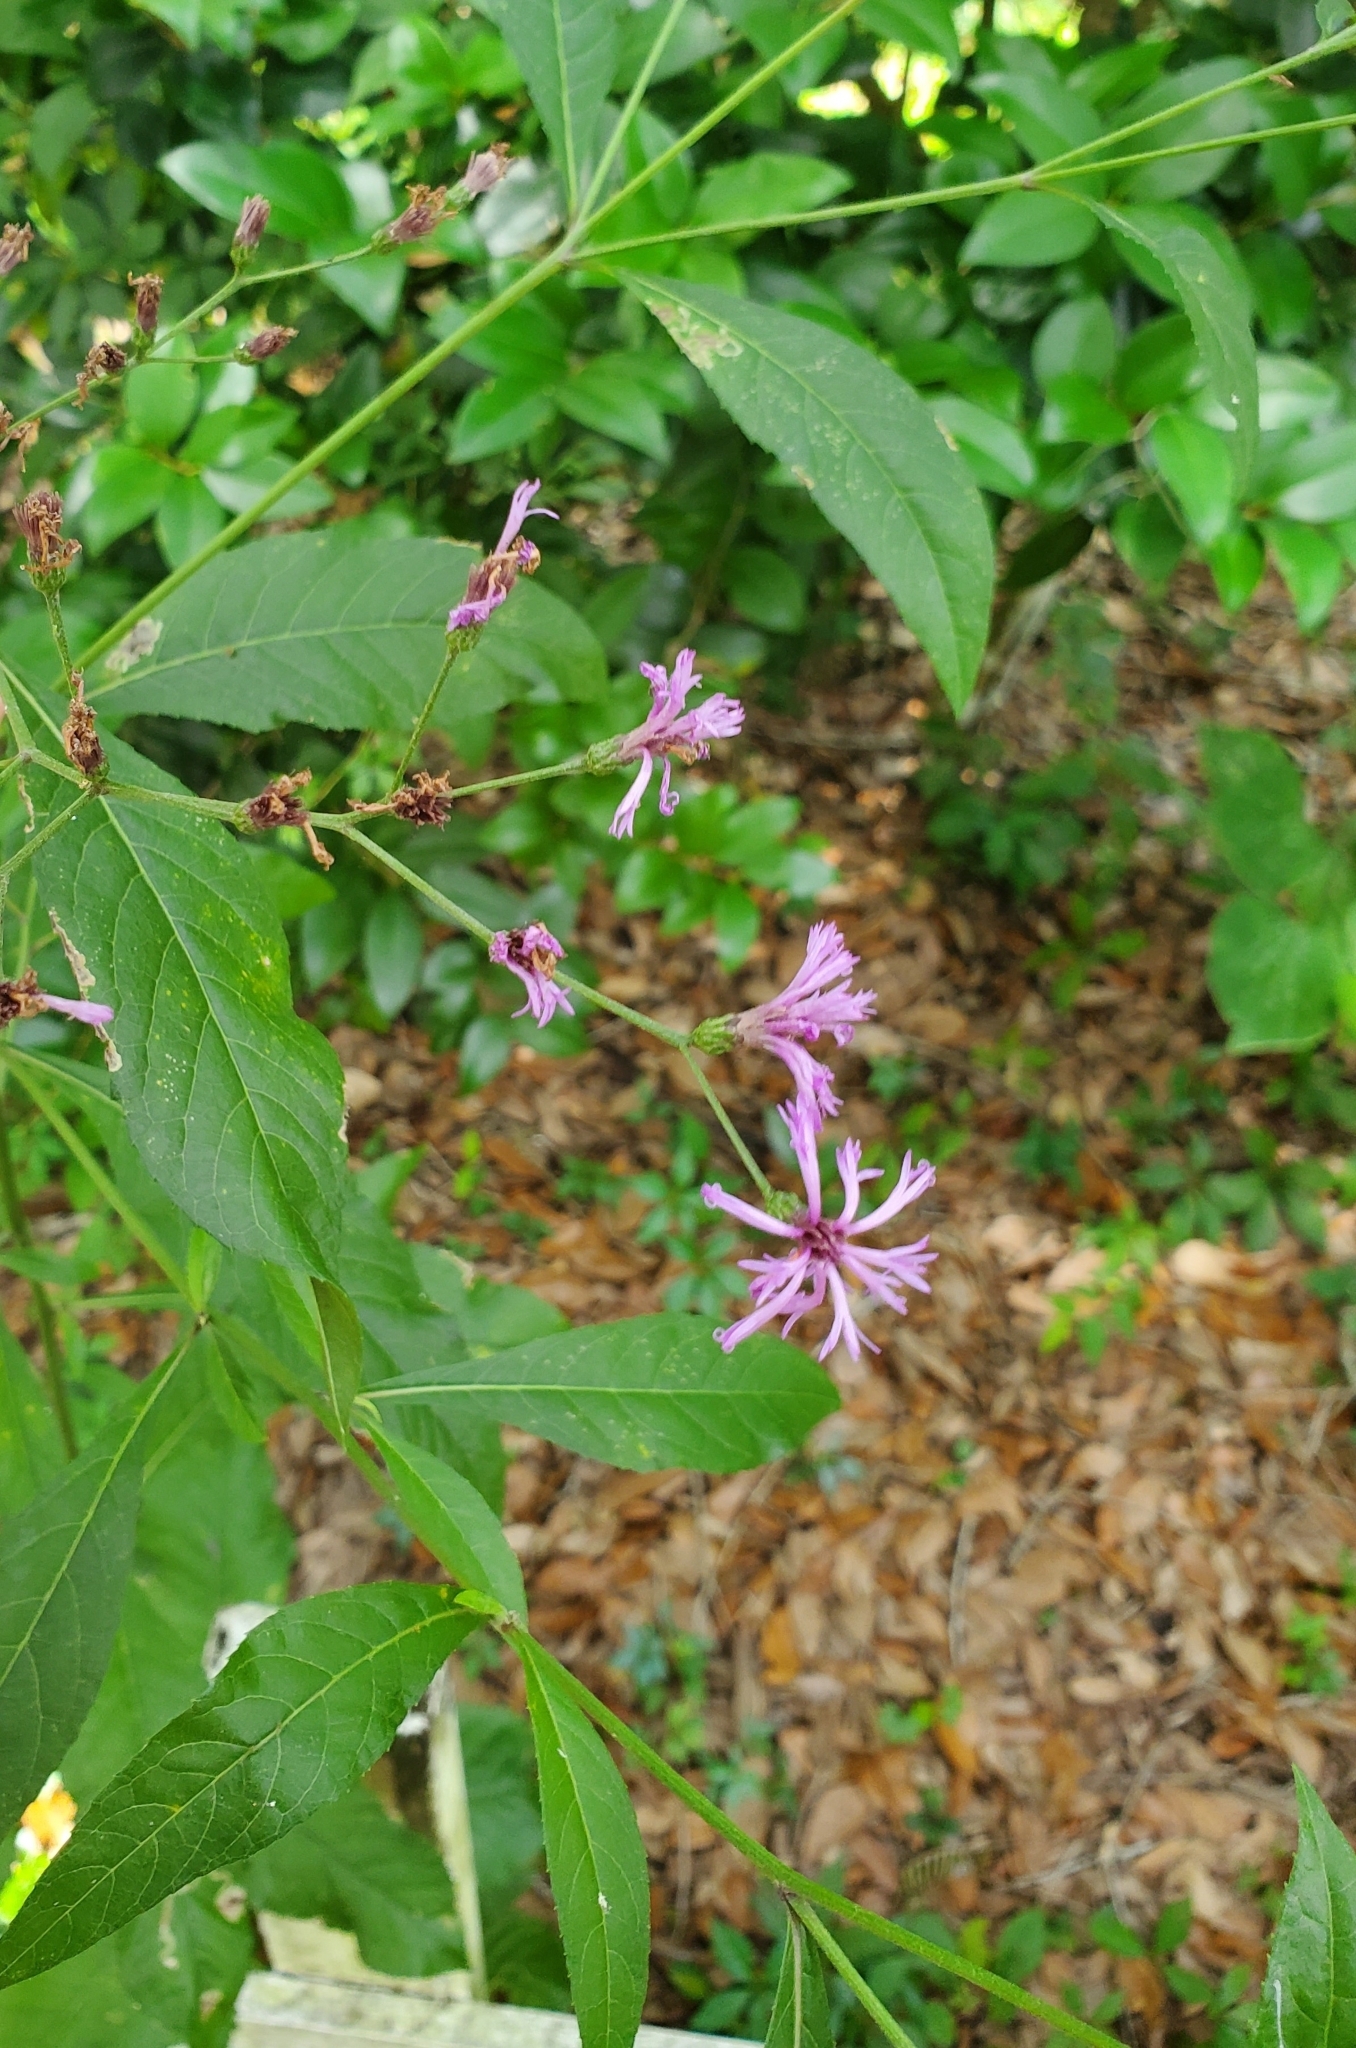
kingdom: Plantae
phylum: Tracheophyta
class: Magnoliopsida
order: Asterales
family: Asteraceae
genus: Vernonia
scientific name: Vernonia gigantea
